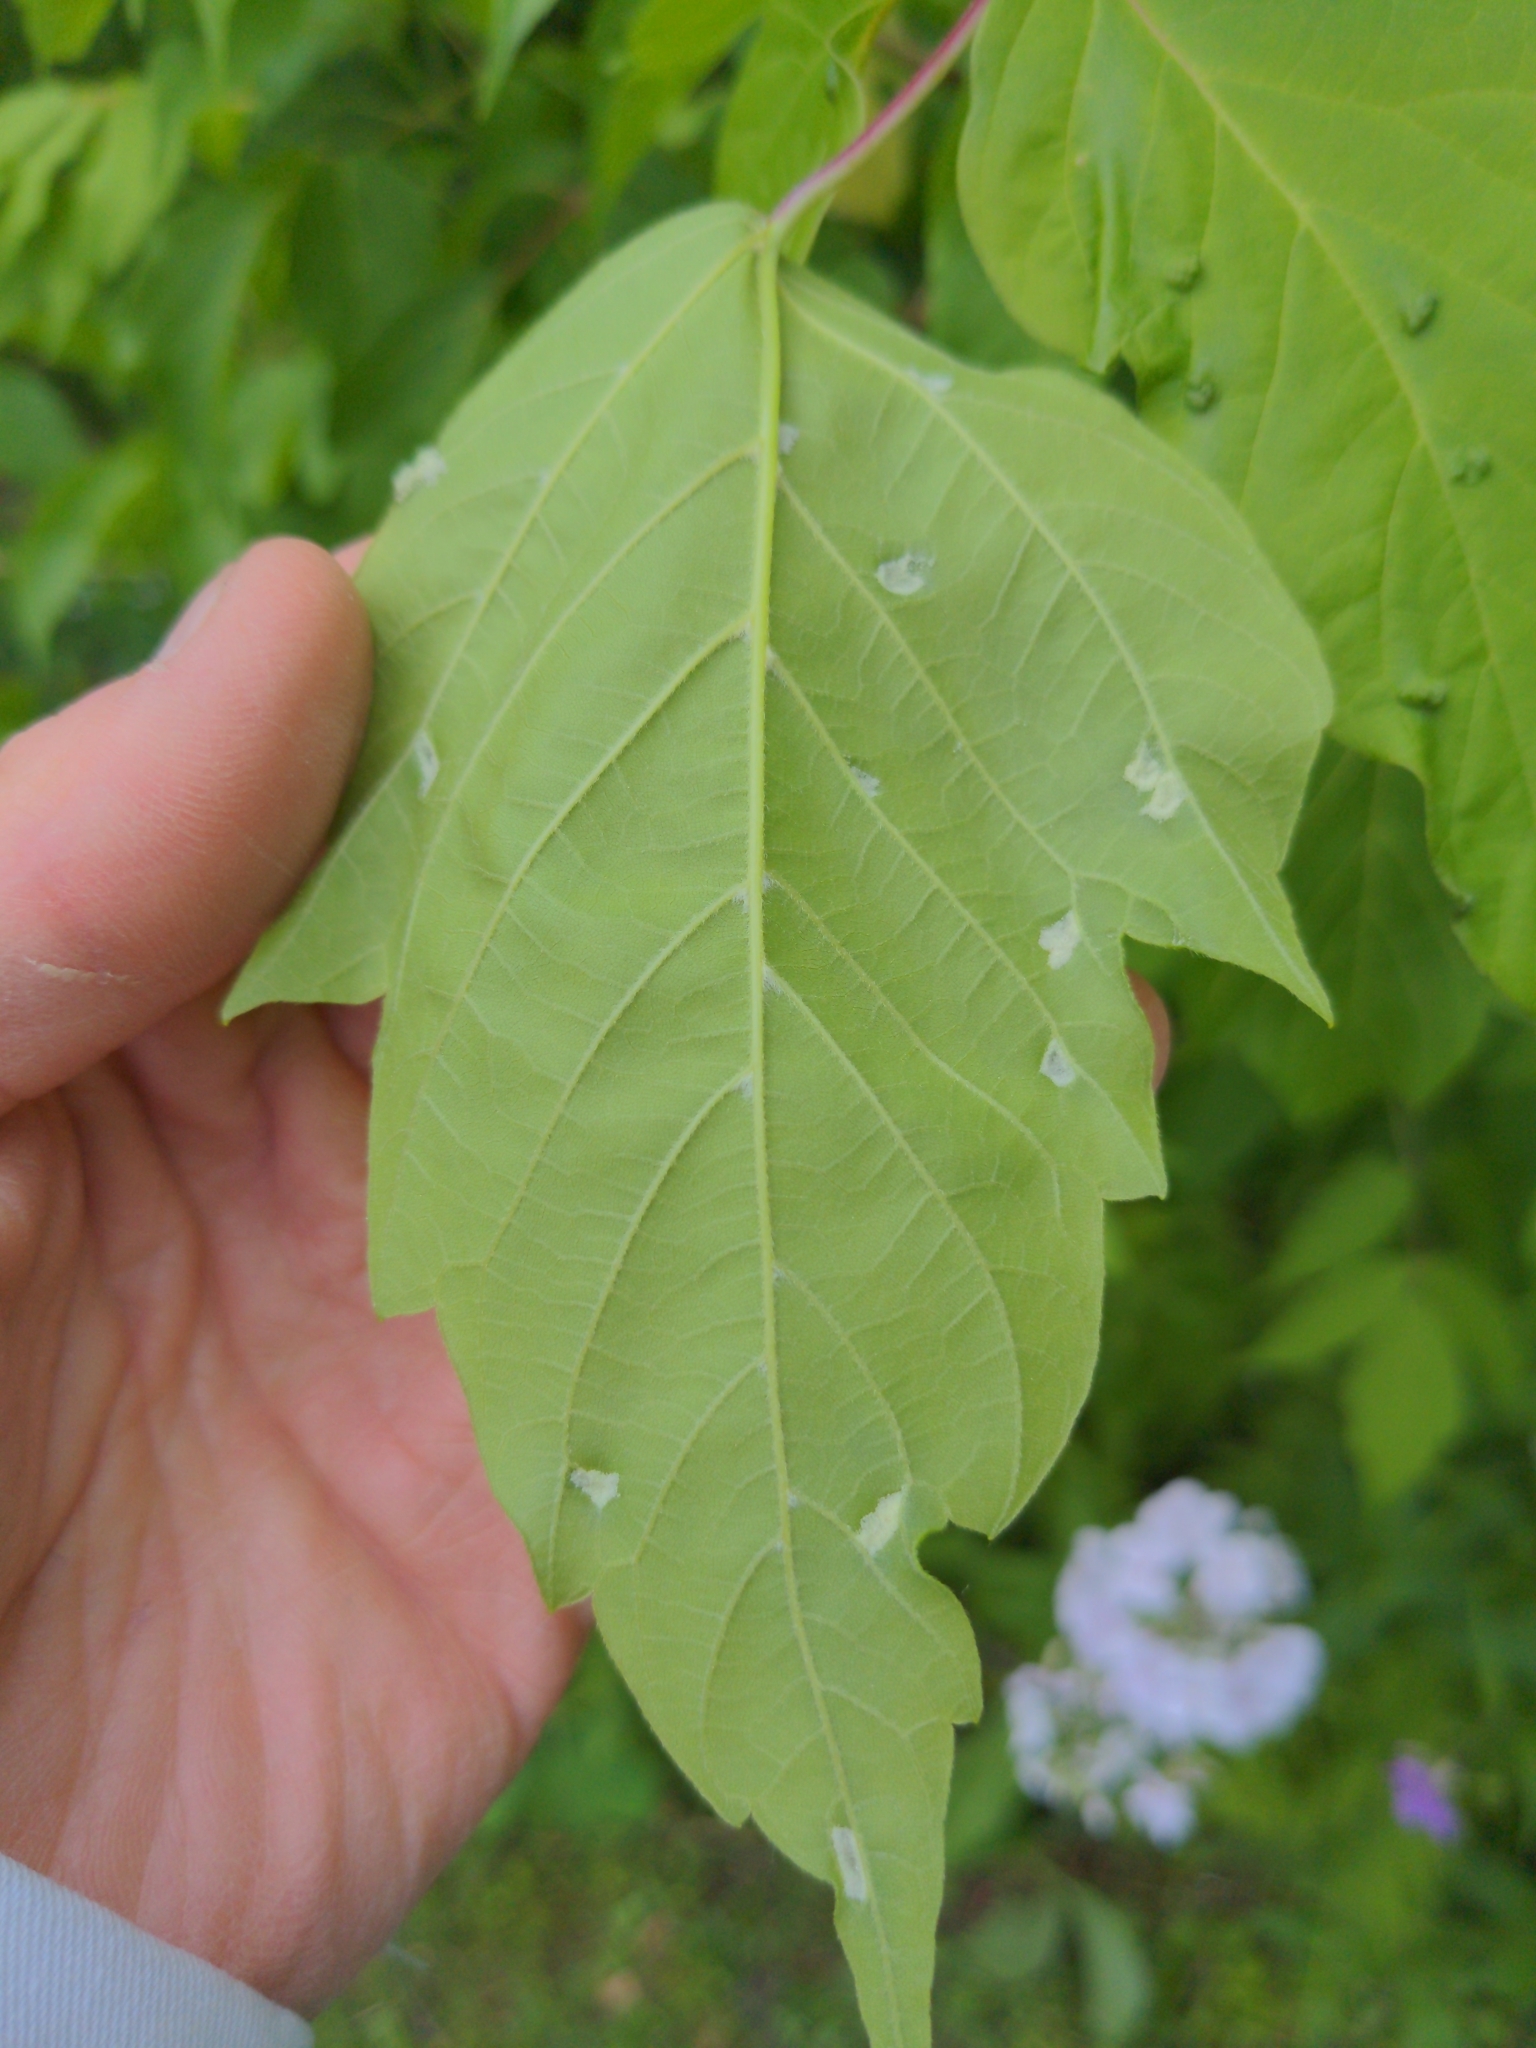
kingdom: Animalia
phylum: Arthropoda
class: Arachnida
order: Trombidiformes
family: Eriophyidae
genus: Aceria
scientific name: Aceria
